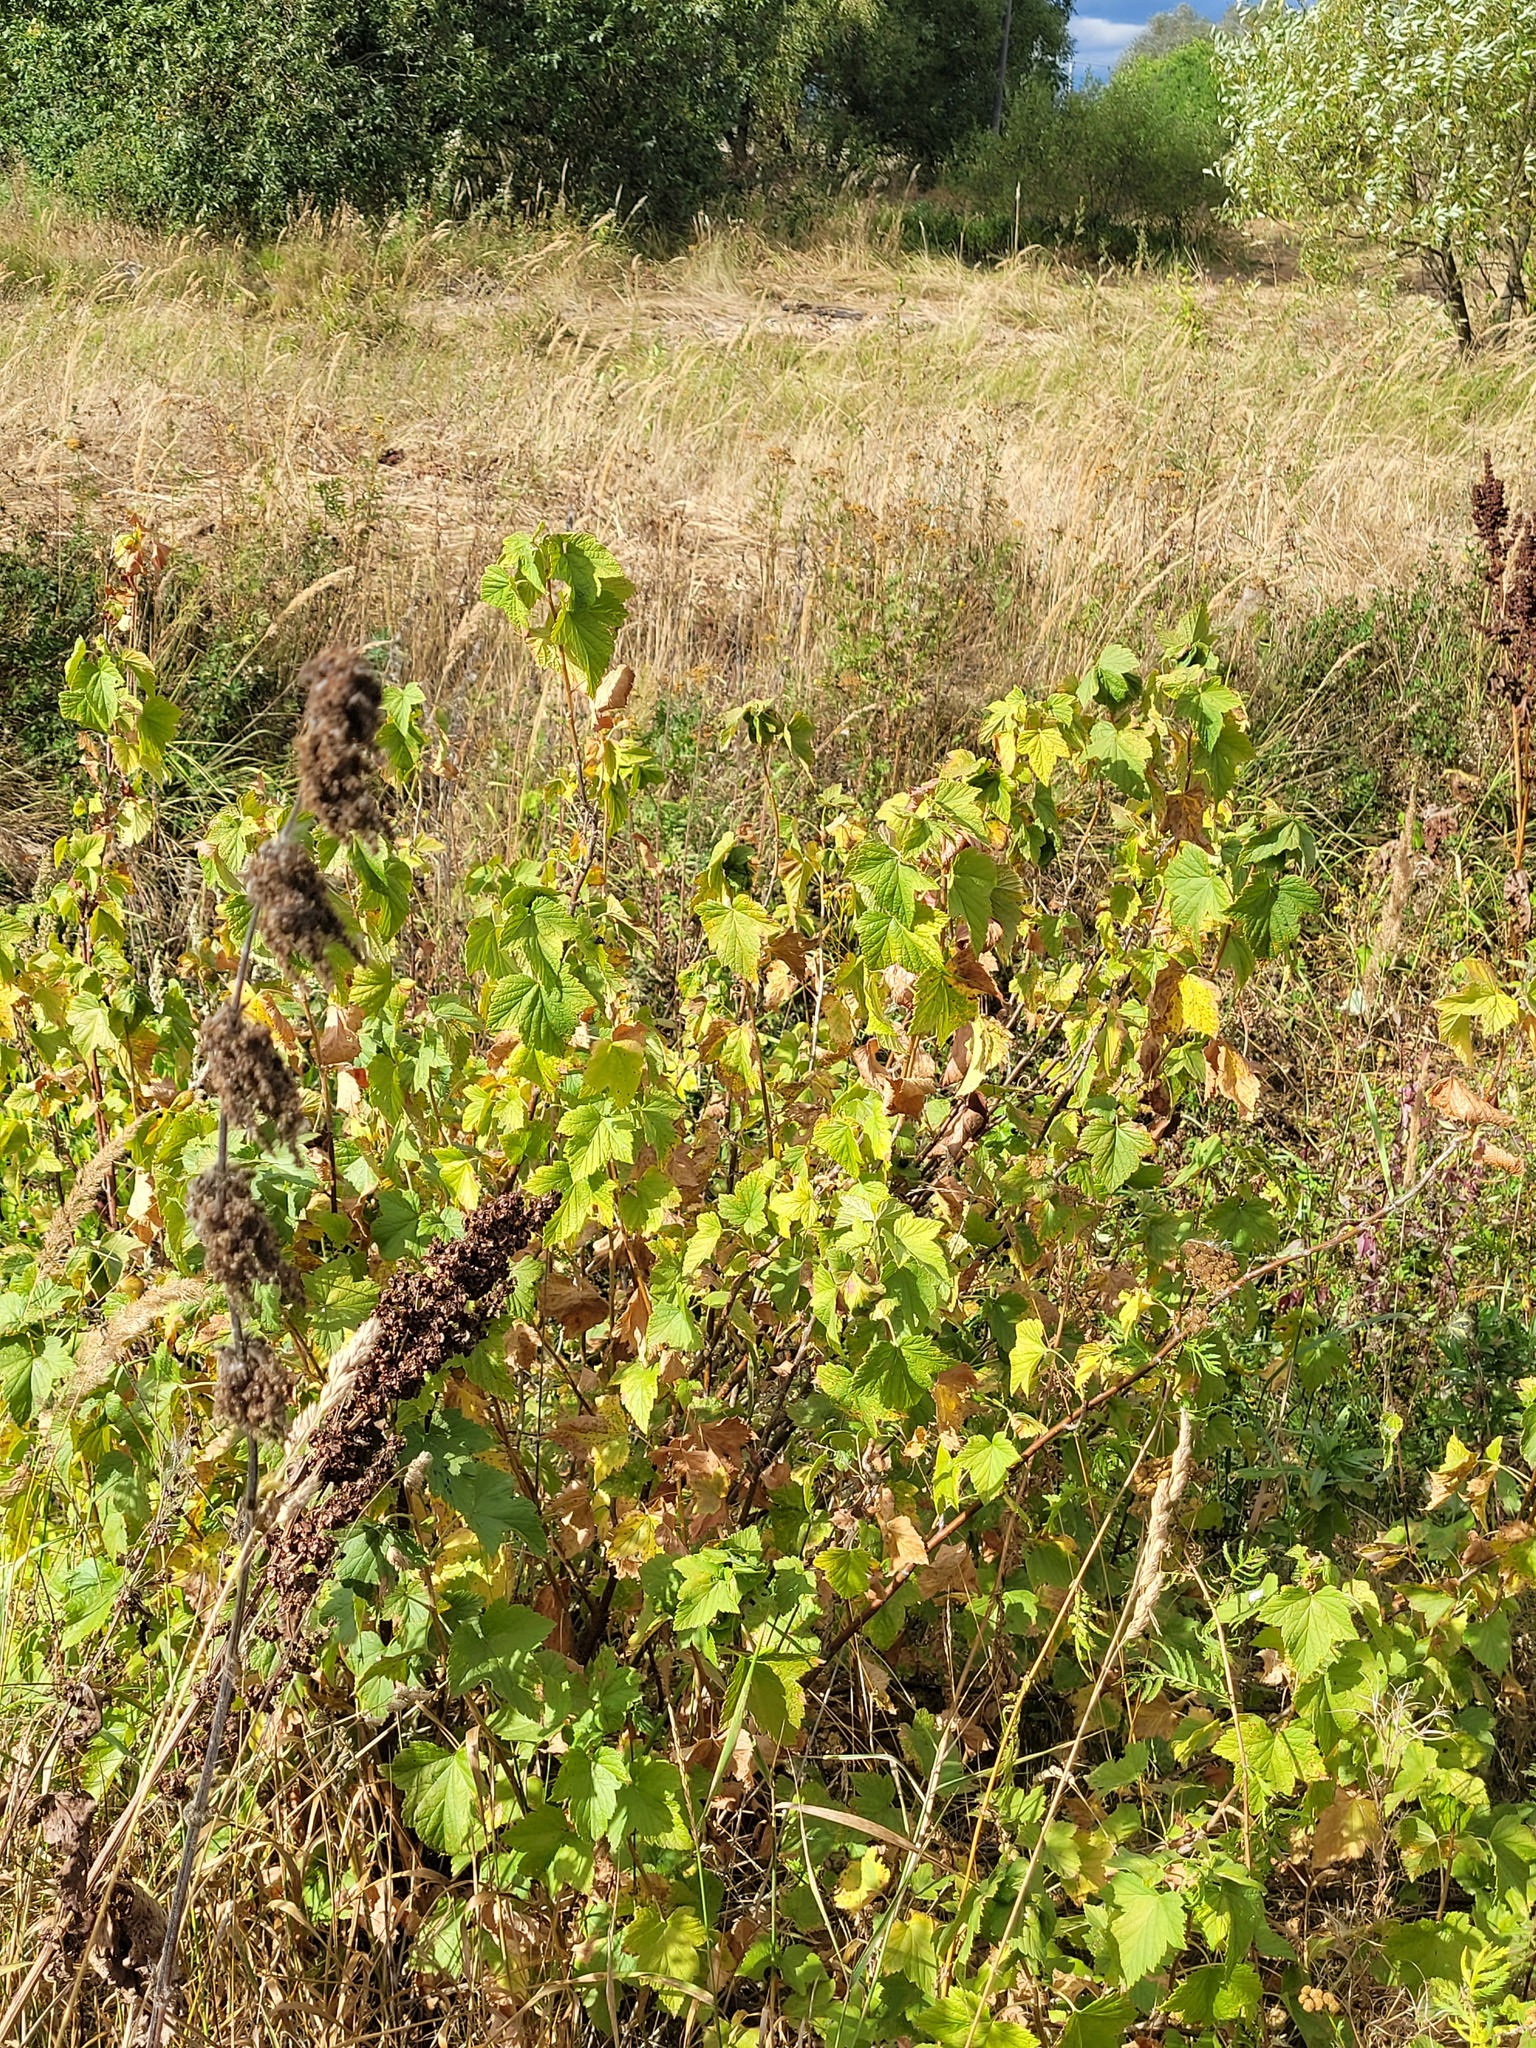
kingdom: Plantae
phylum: Tracheophyta
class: Magnoliopsida
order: Saxifragales
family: Grossulariaceae
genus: Ribes
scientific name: Ribes nigrum
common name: Black currant
